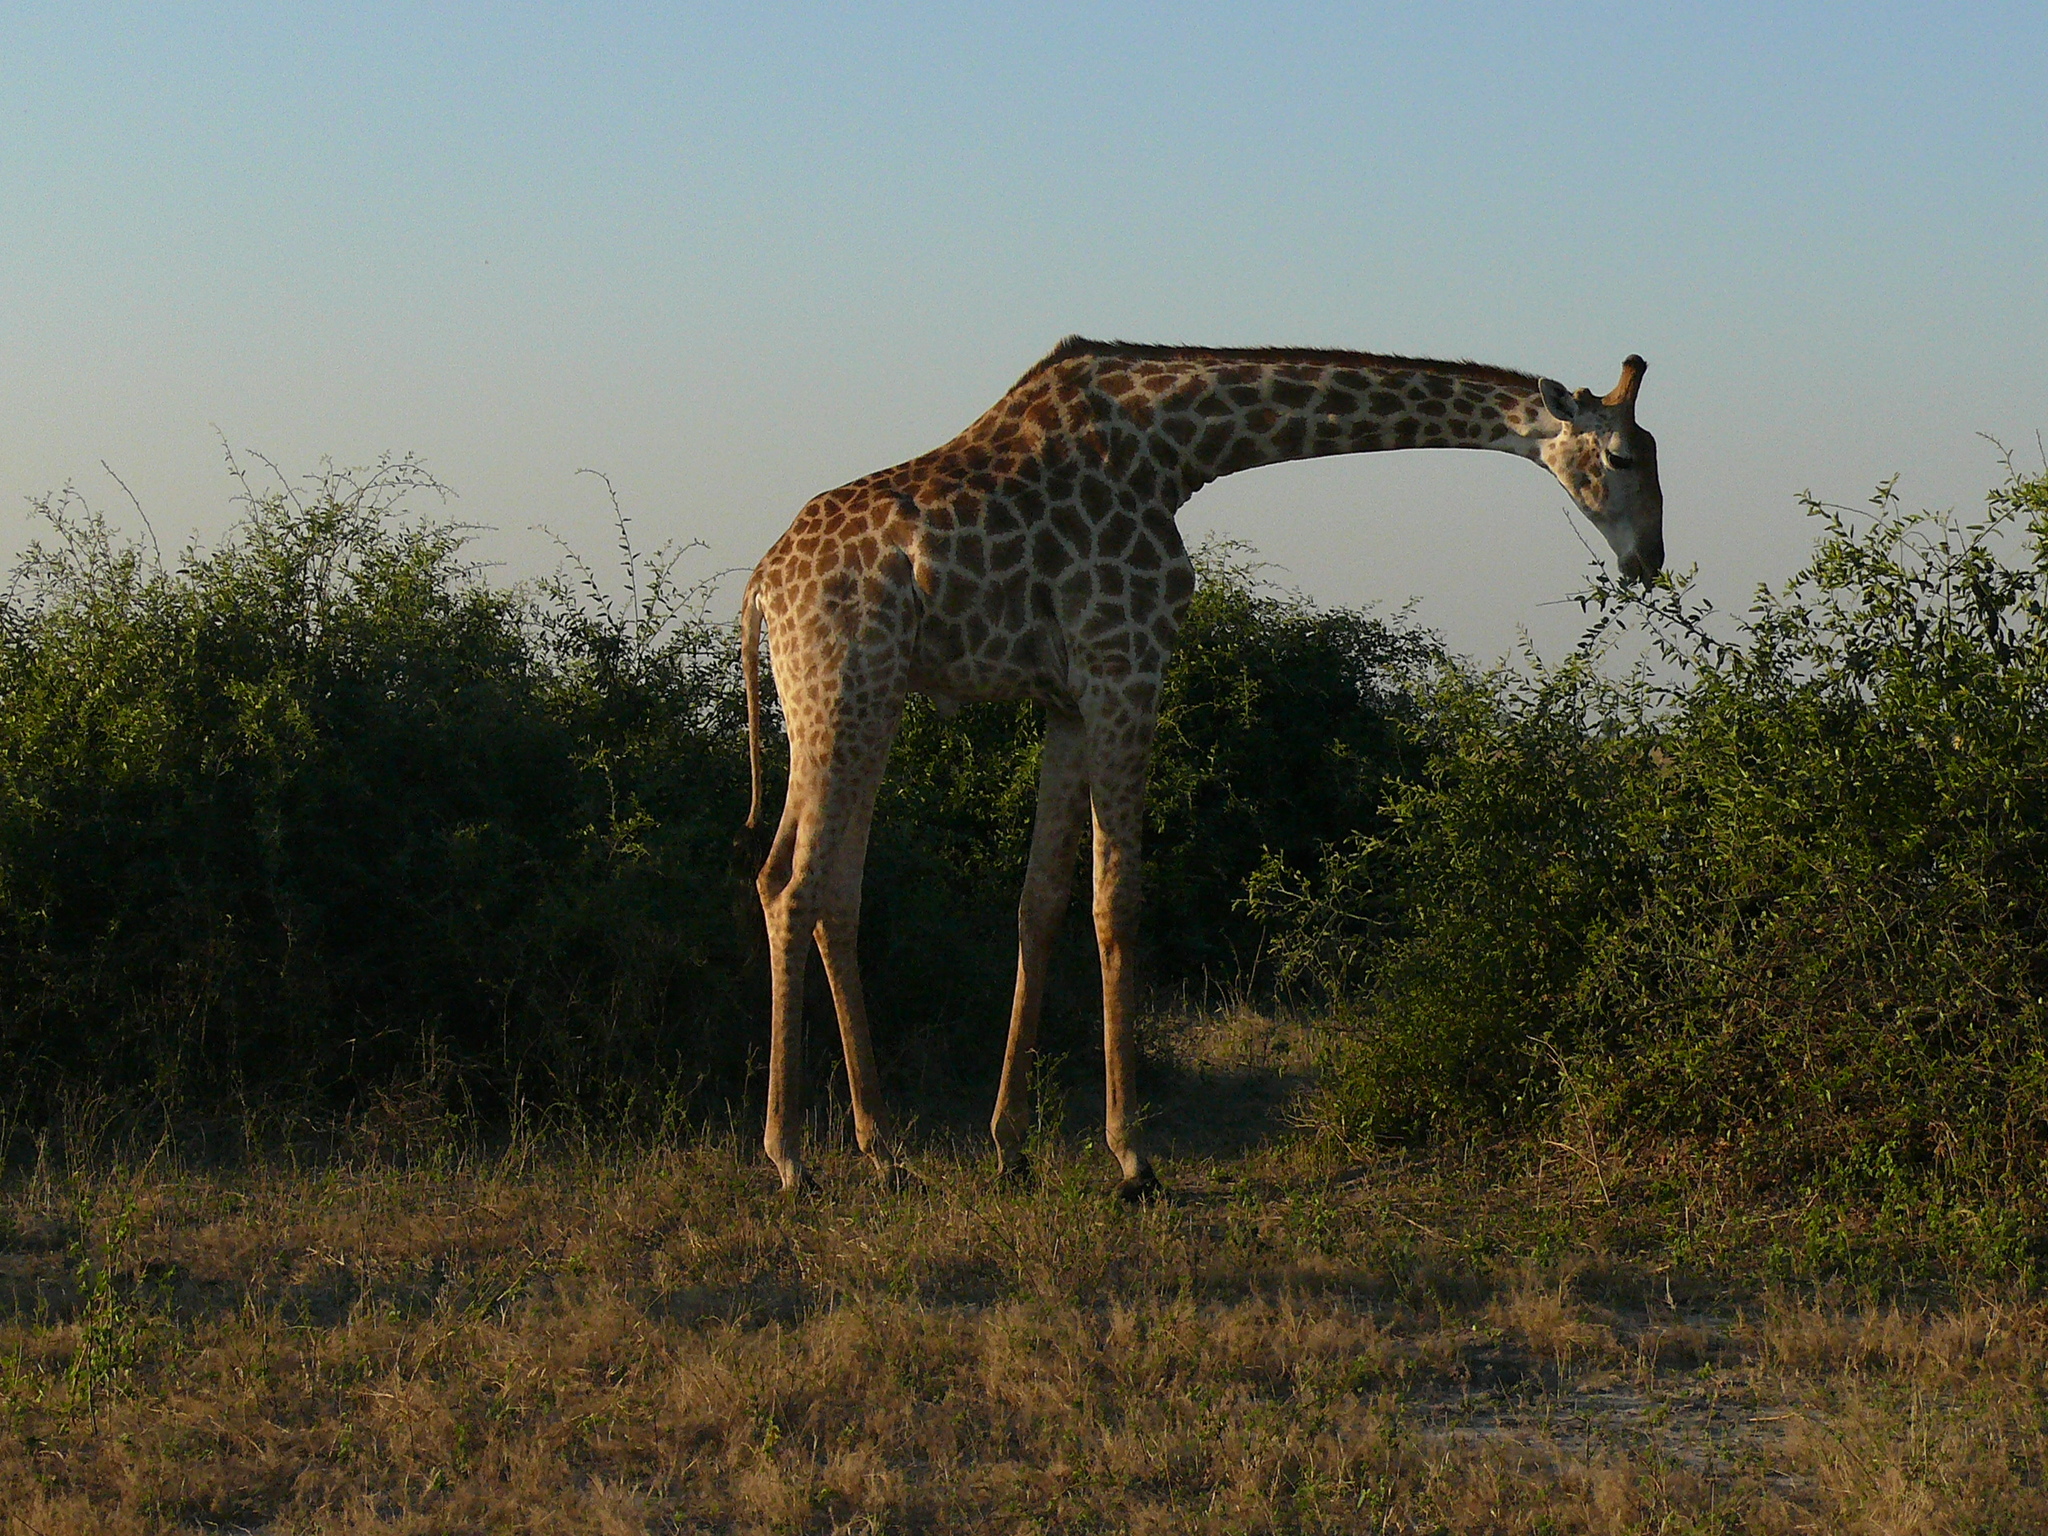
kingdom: Animalia
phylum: Chordata
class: Mammalia
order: Artiodactyla
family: Giraffidae
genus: Giraffa
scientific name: Giraffa giraffa
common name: Southern giraffe
